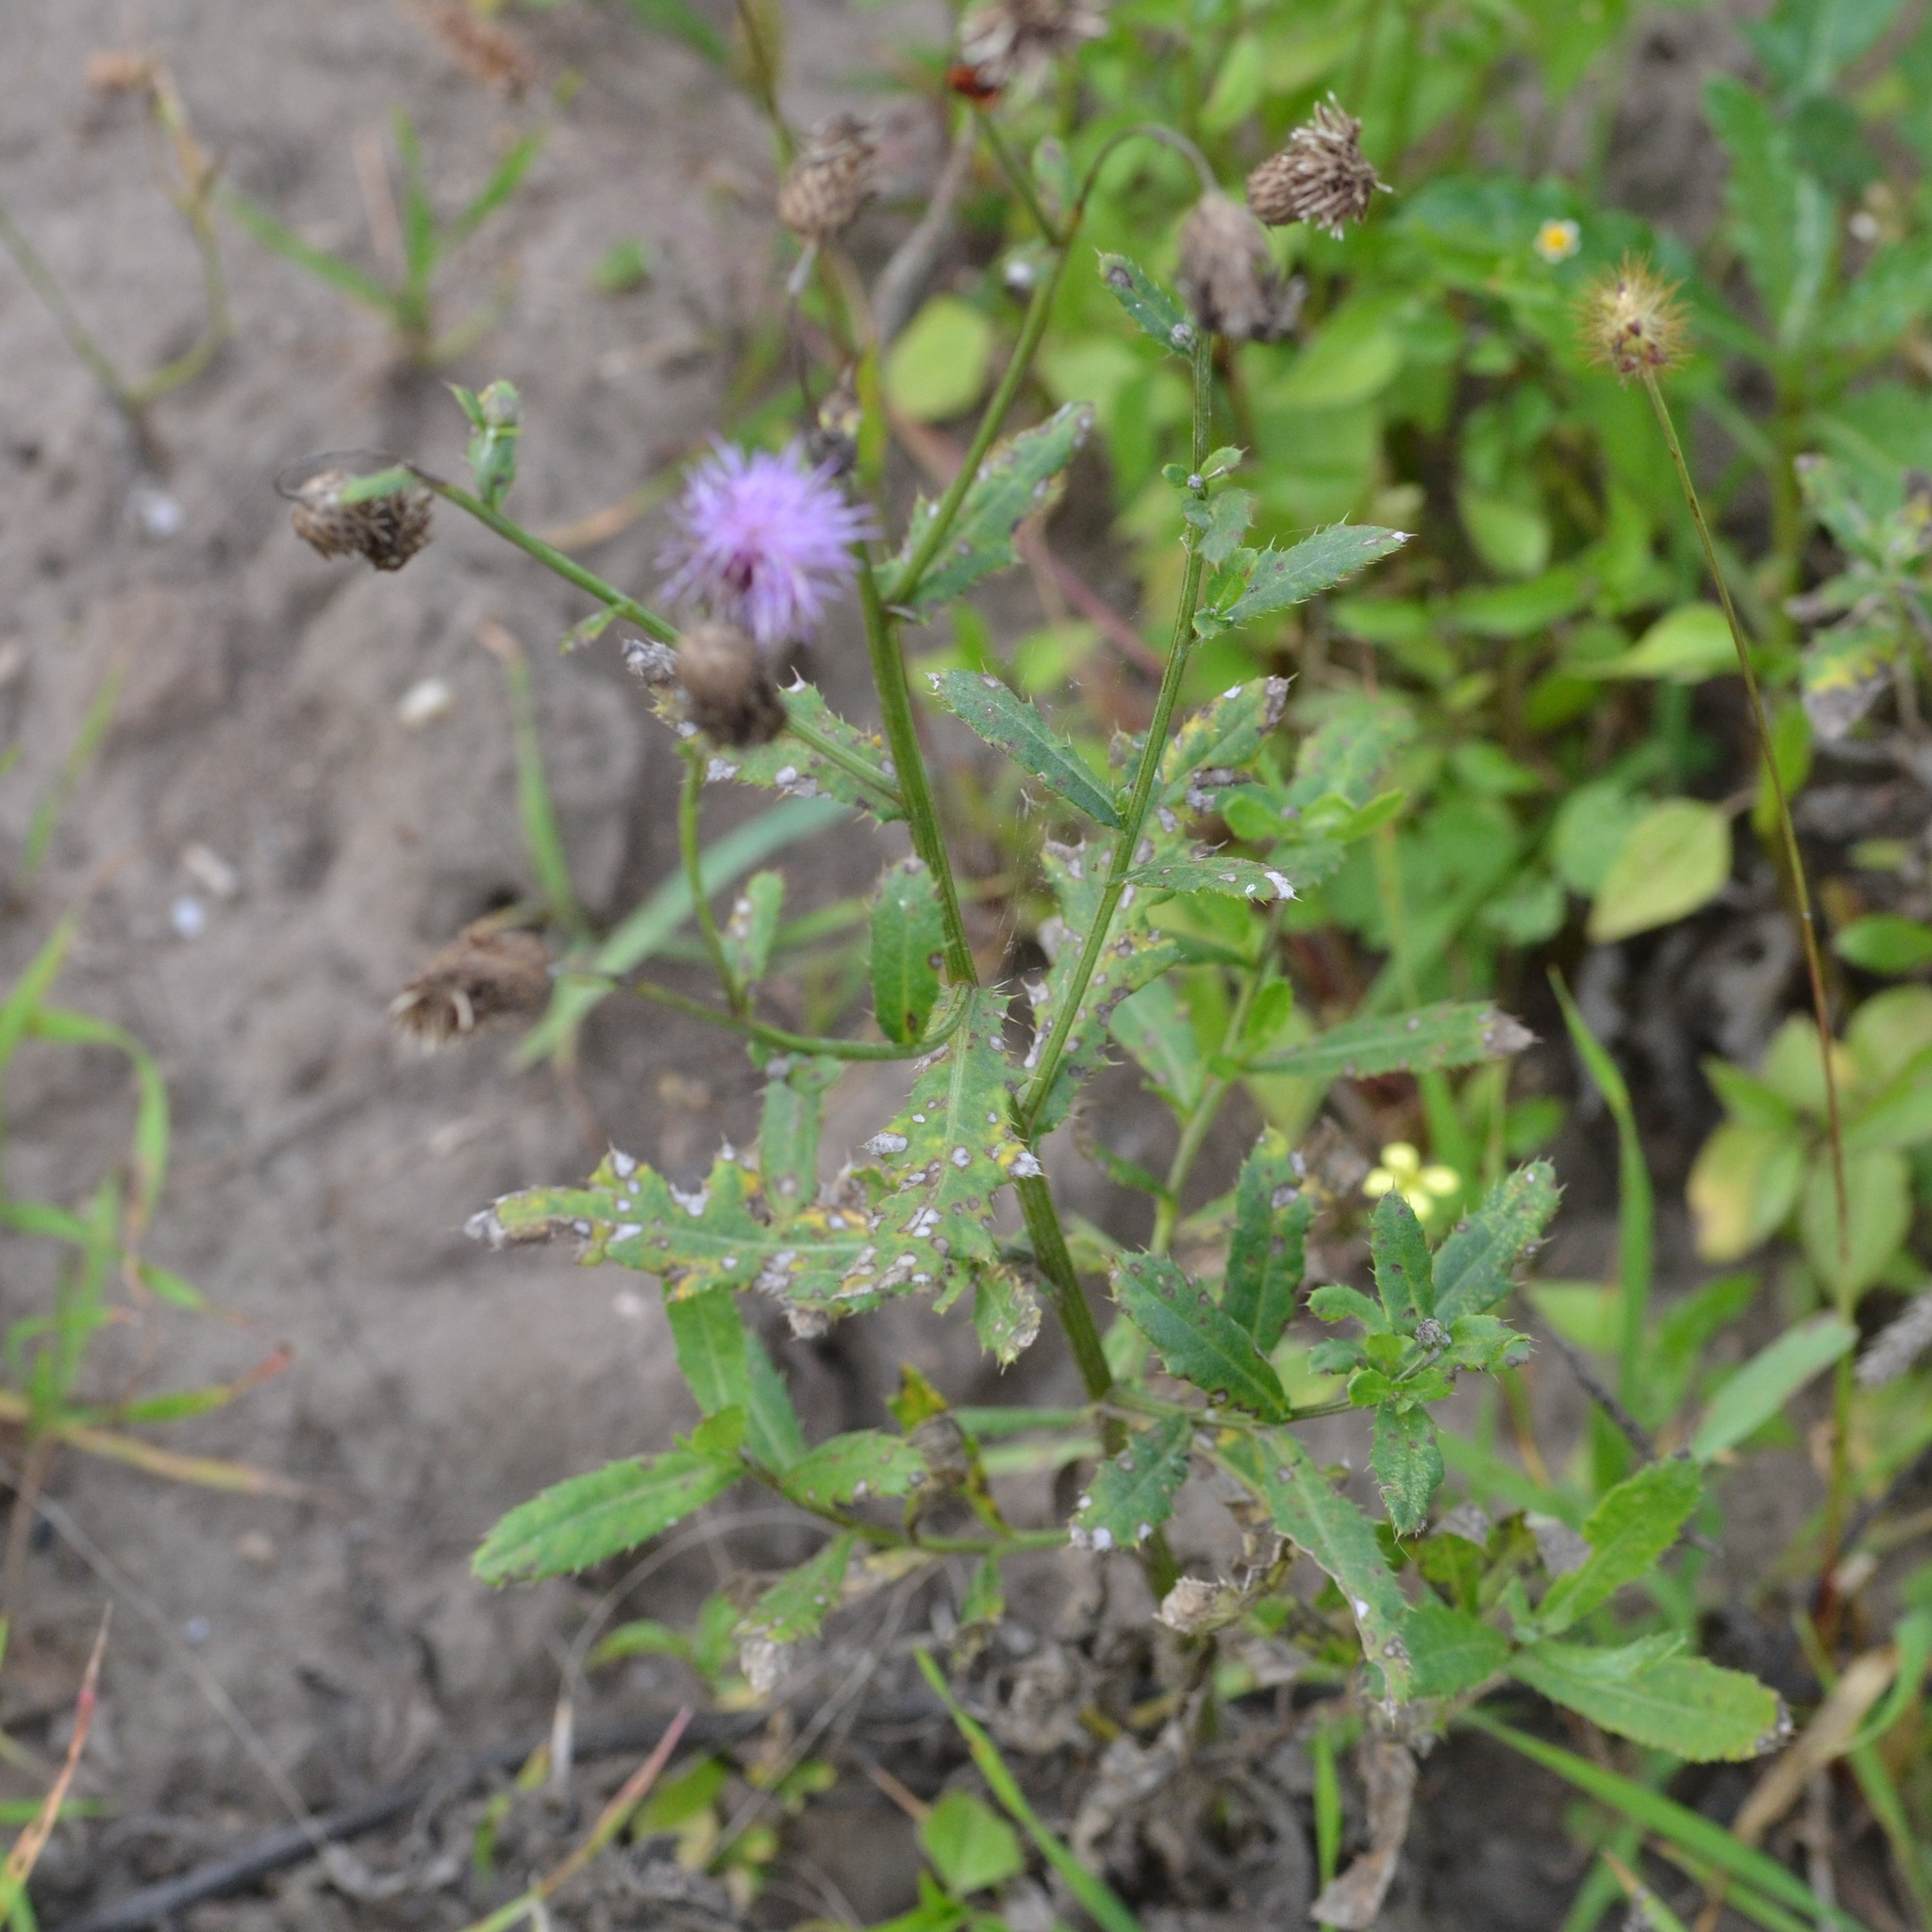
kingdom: Plantae
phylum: Tracheophyta
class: Magnoliopsida
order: Asterales
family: Asteraceae
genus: Cirsium
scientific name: Cirsium arvense
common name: Creeping thistle
